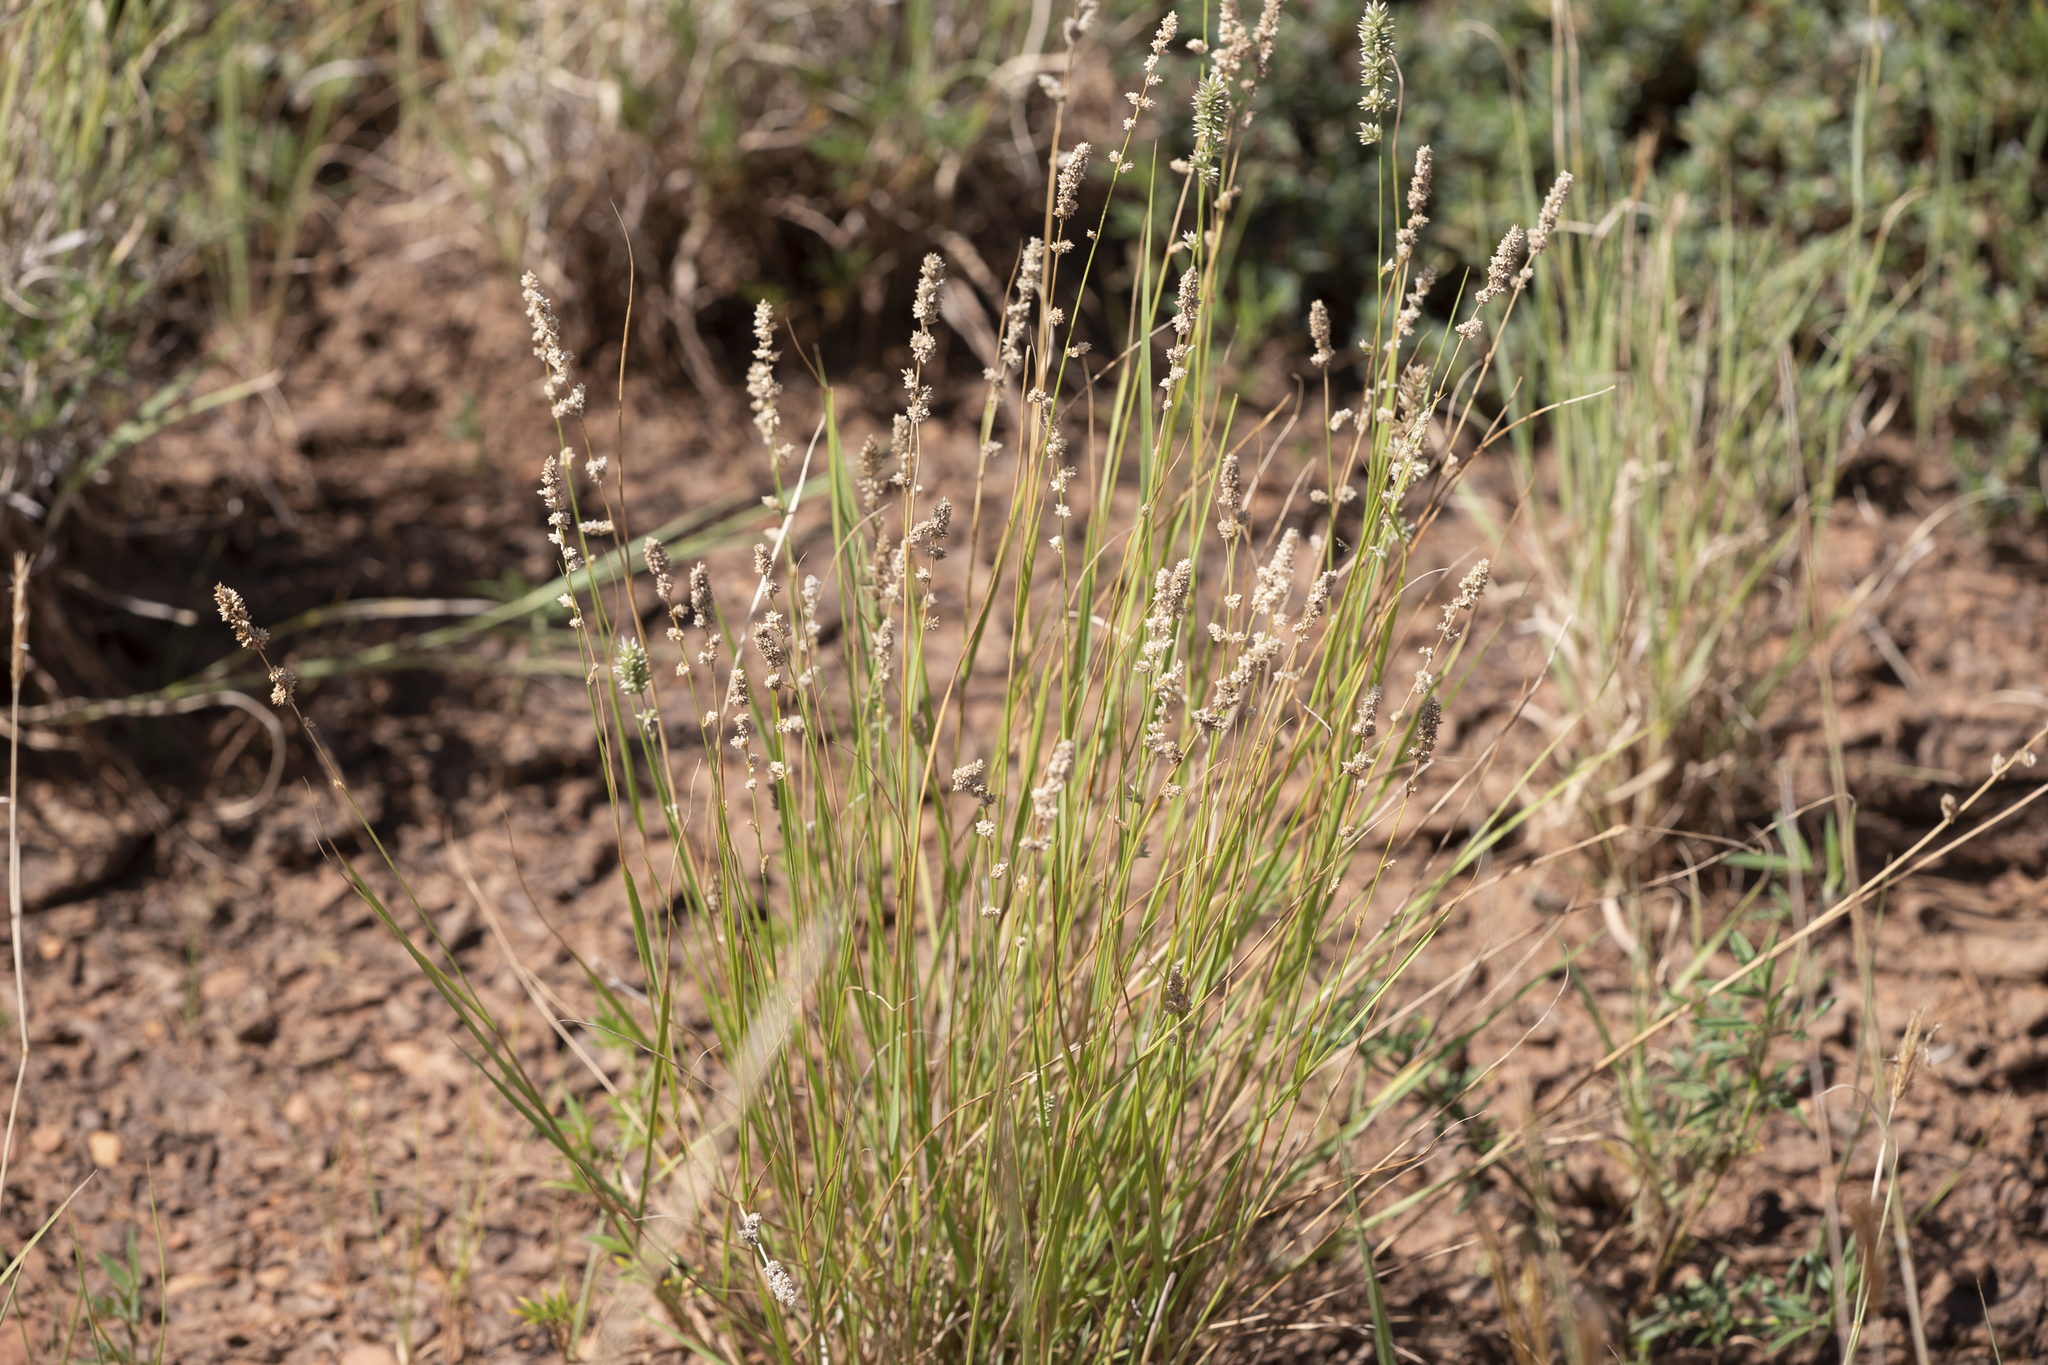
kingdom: Plantae
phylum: Tracheophyta
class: Liliopsida
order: Poales
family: Poaceae
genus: Eragrostis
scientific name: Eragrostis elongata
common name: Long lovegrass
